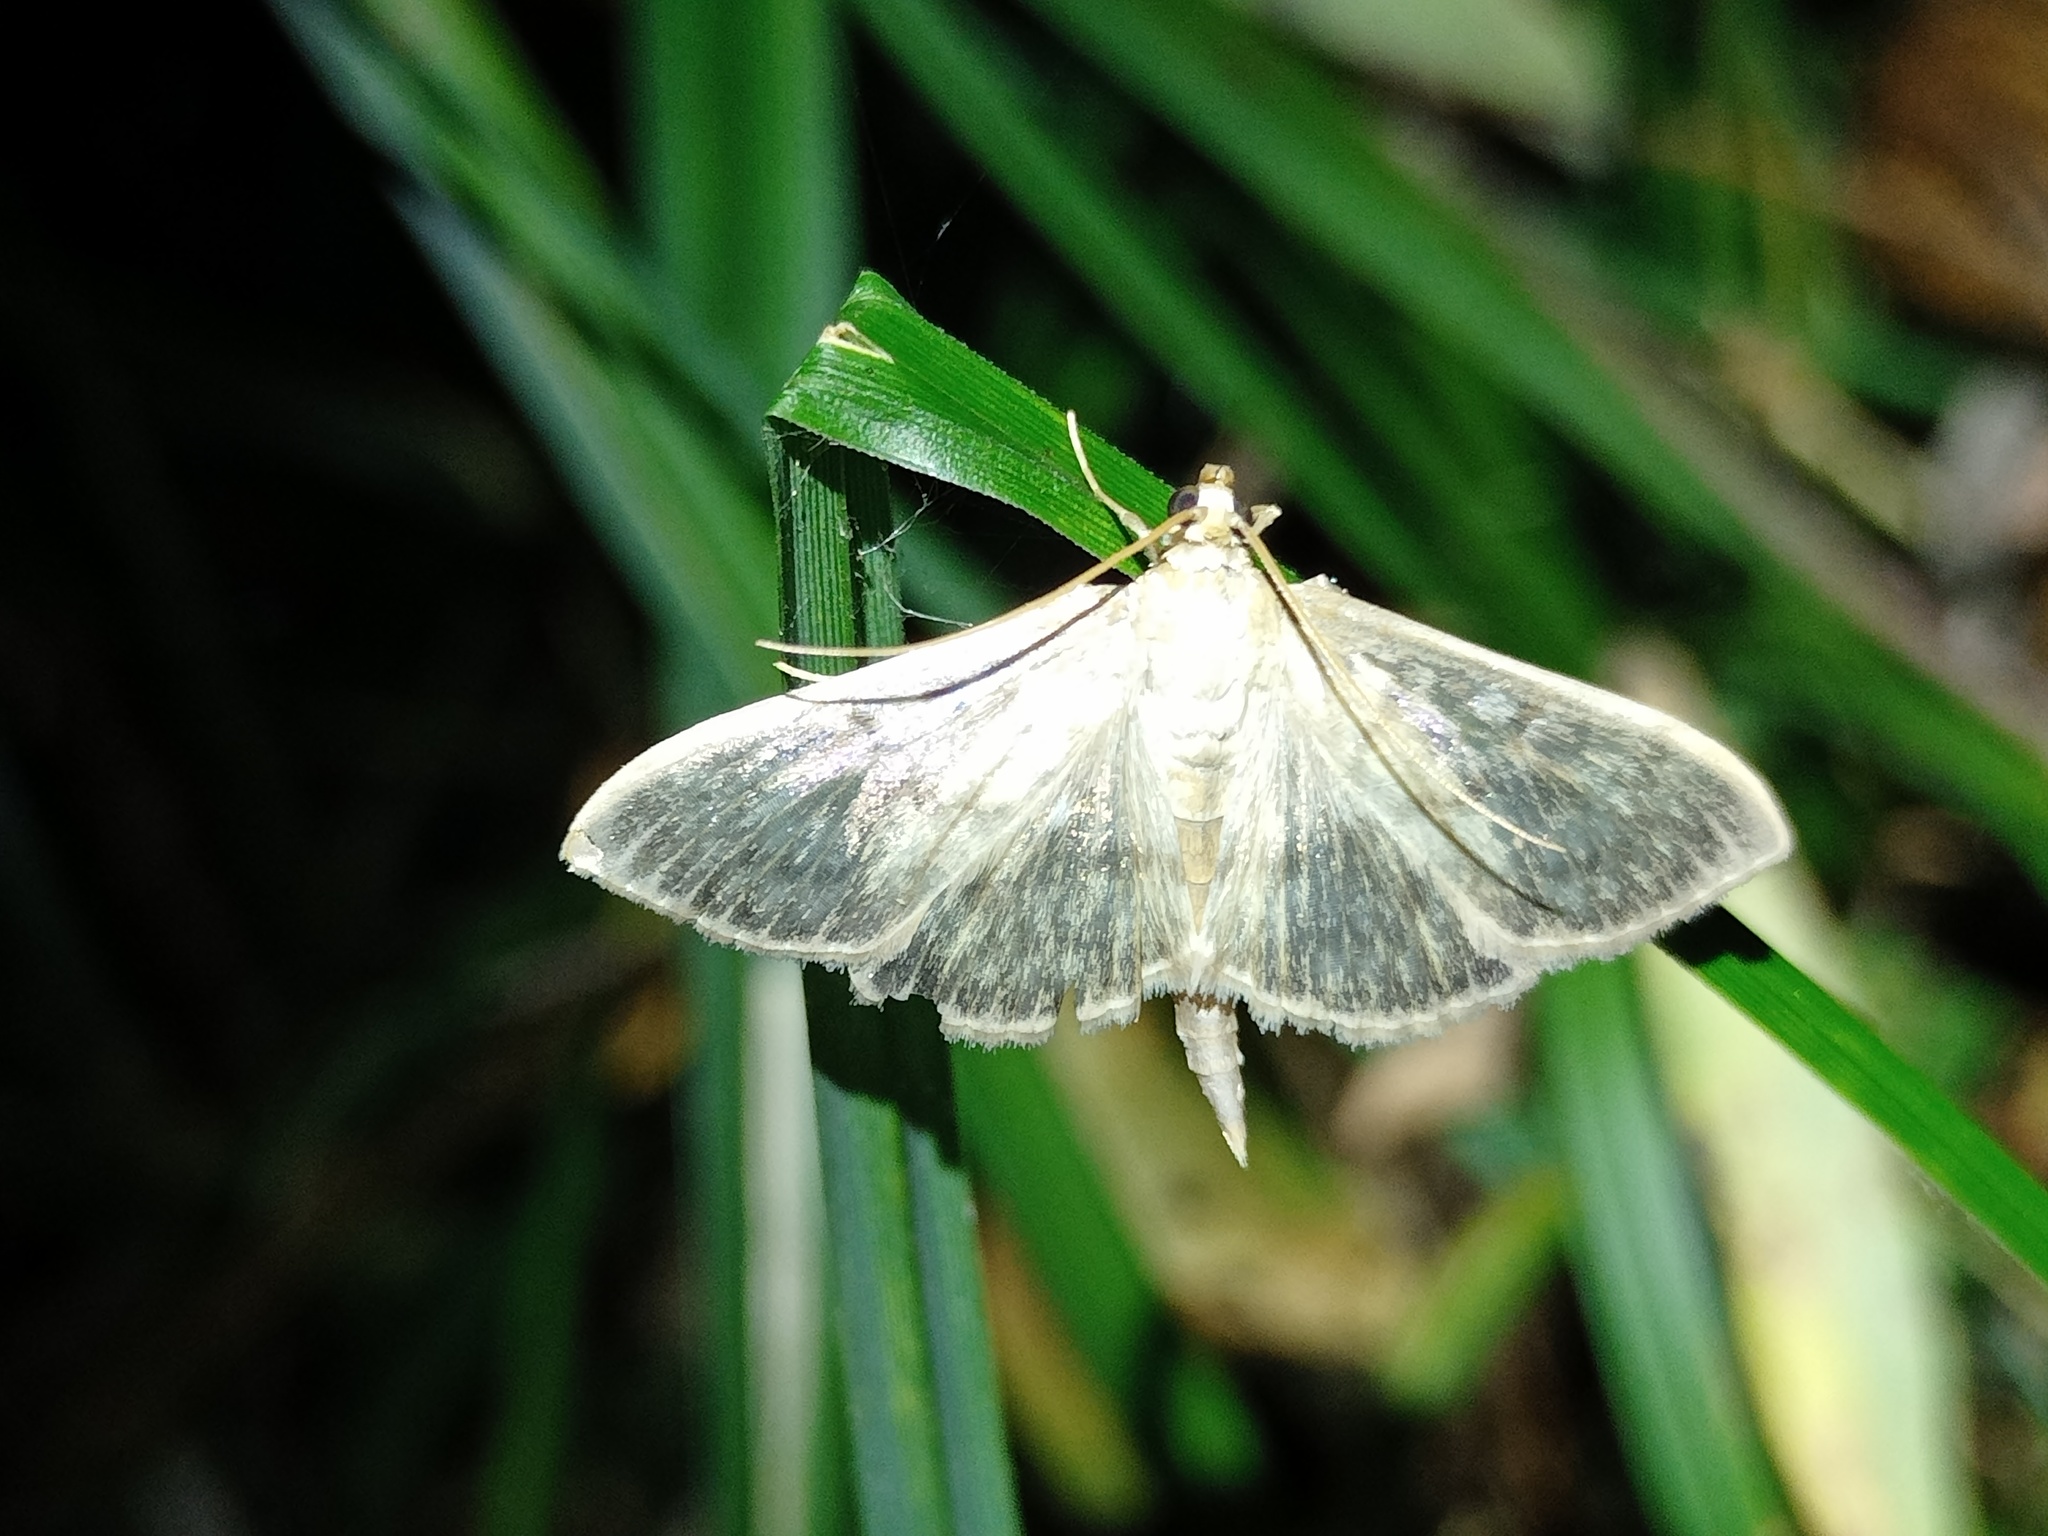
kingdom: Animalia
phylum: Arthropoda
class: Insecta
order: Lepidoptera
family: Crambidae
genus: Patania
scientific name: Patania ruralis
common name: Mother of pearl
